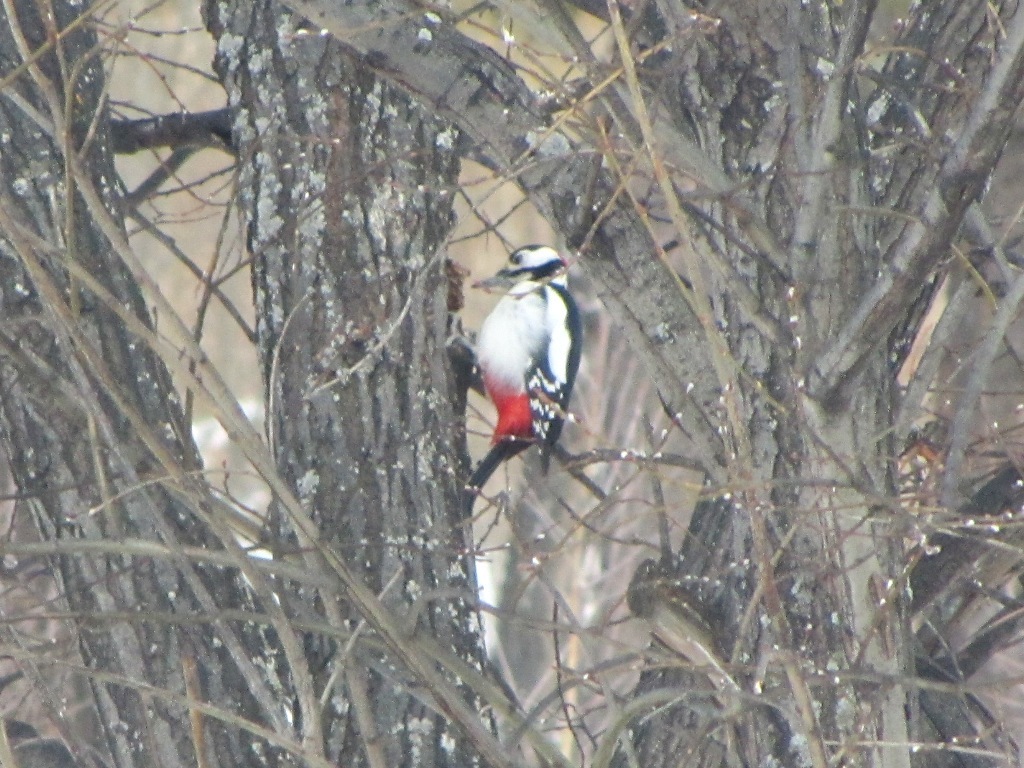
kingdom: Animalia
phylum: Chordata
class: Aves
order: Piciformes
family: Picidae
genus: Dendrocopos
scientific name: Dendrocopos major
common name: Great spotted woodpecker
